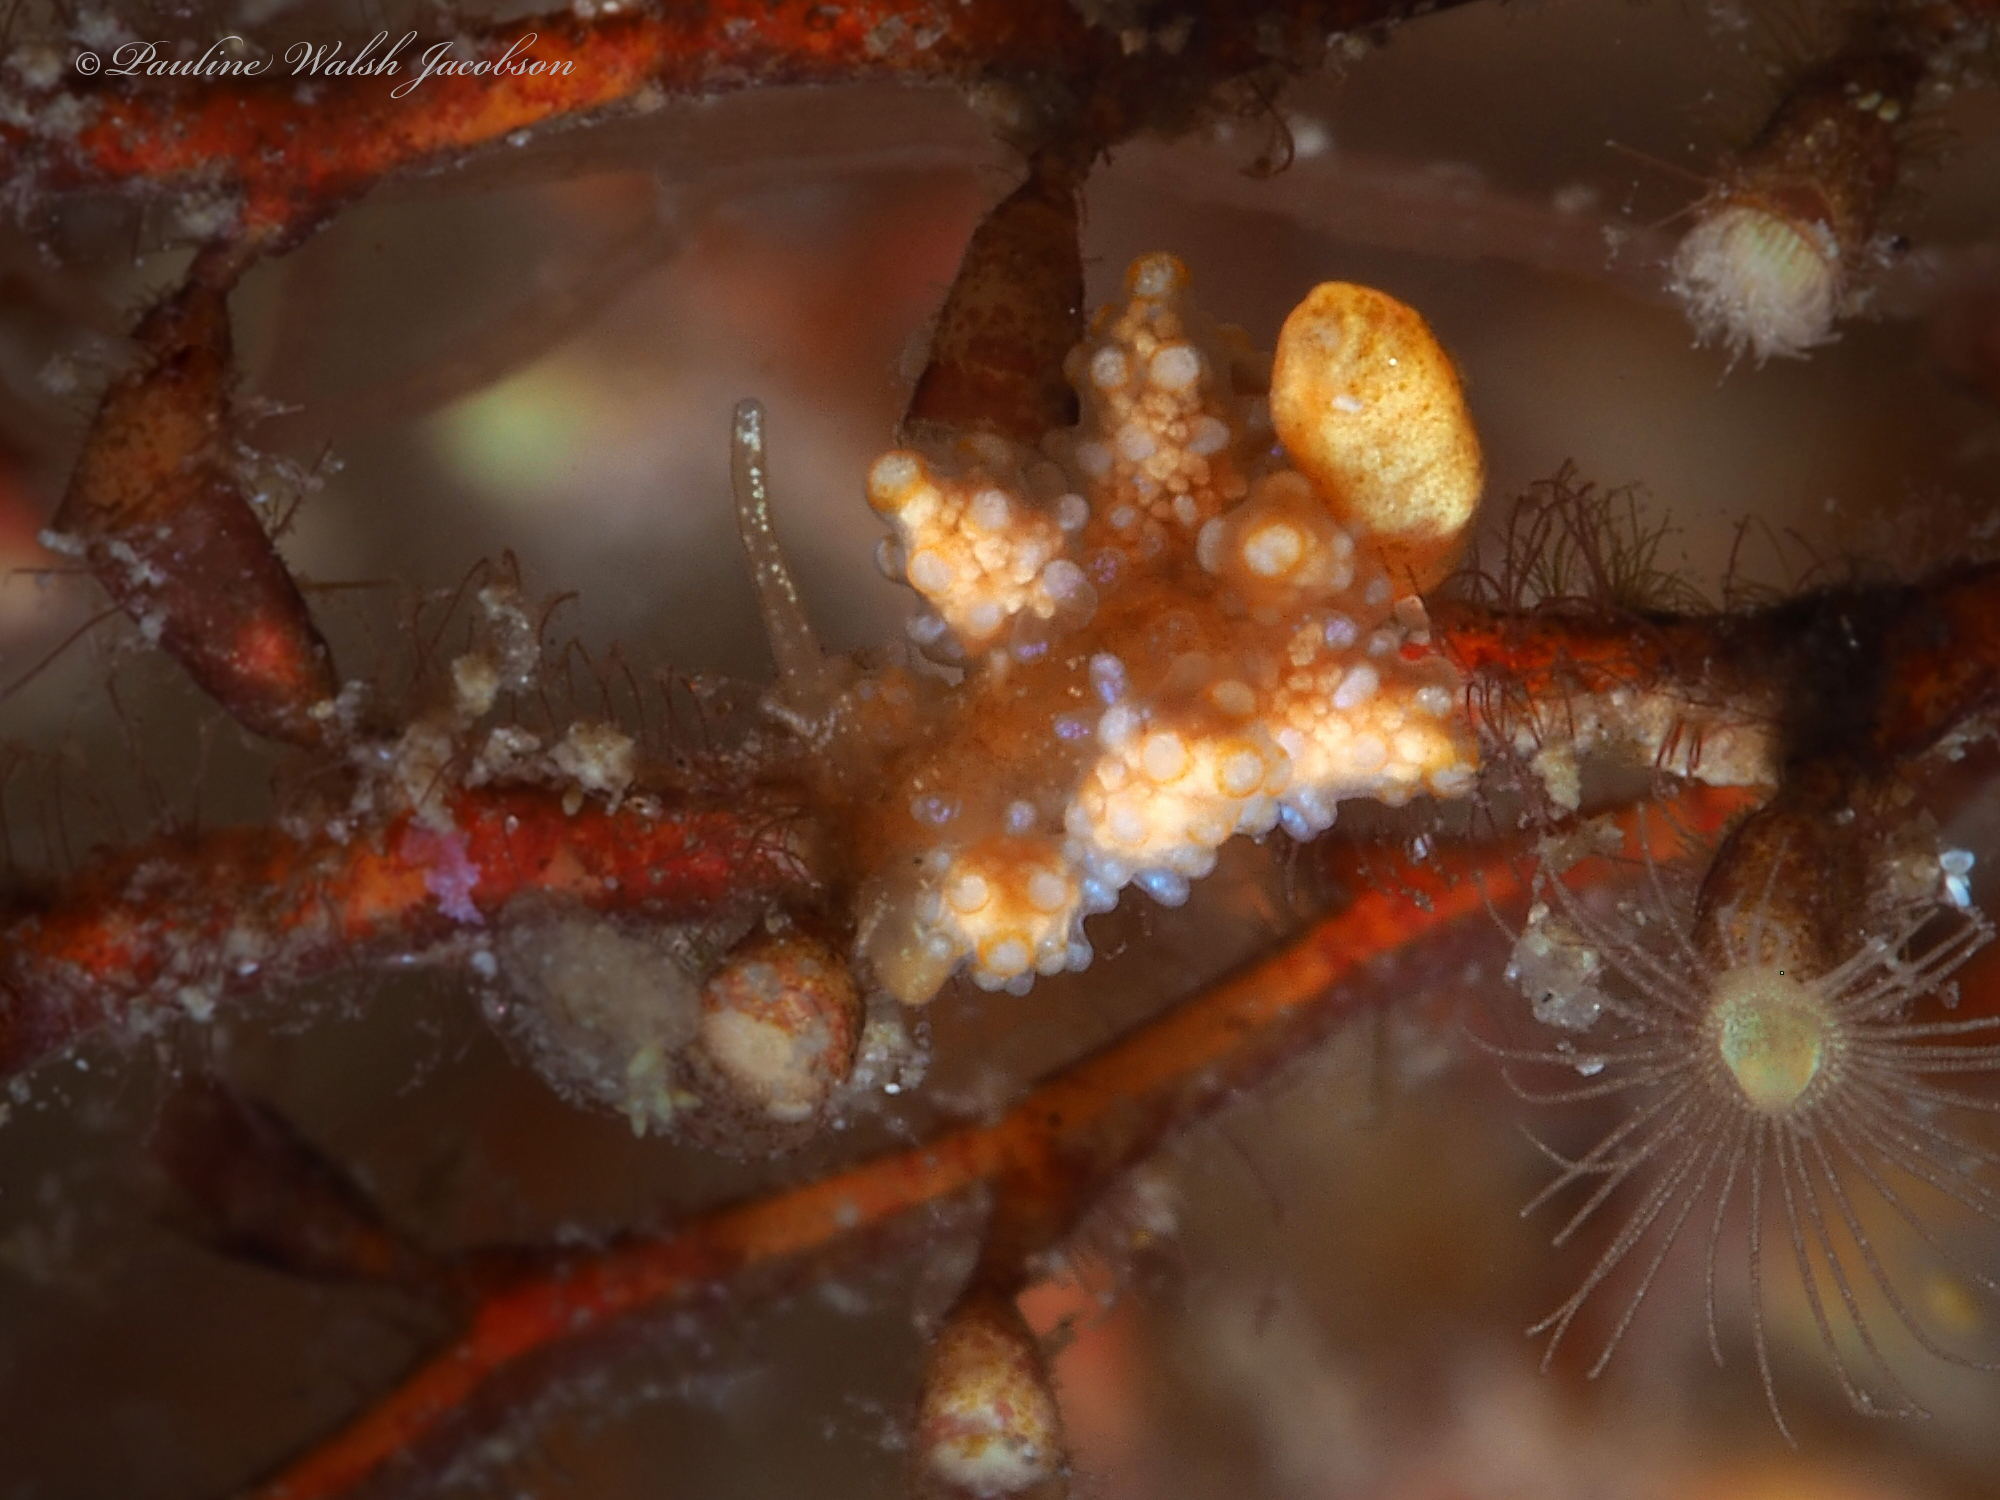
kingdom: Animalia
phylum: Mollusca
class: Gastropoda
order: Nudibranchia
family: Dotidae
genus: Doto
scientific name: Doto torrelavega
